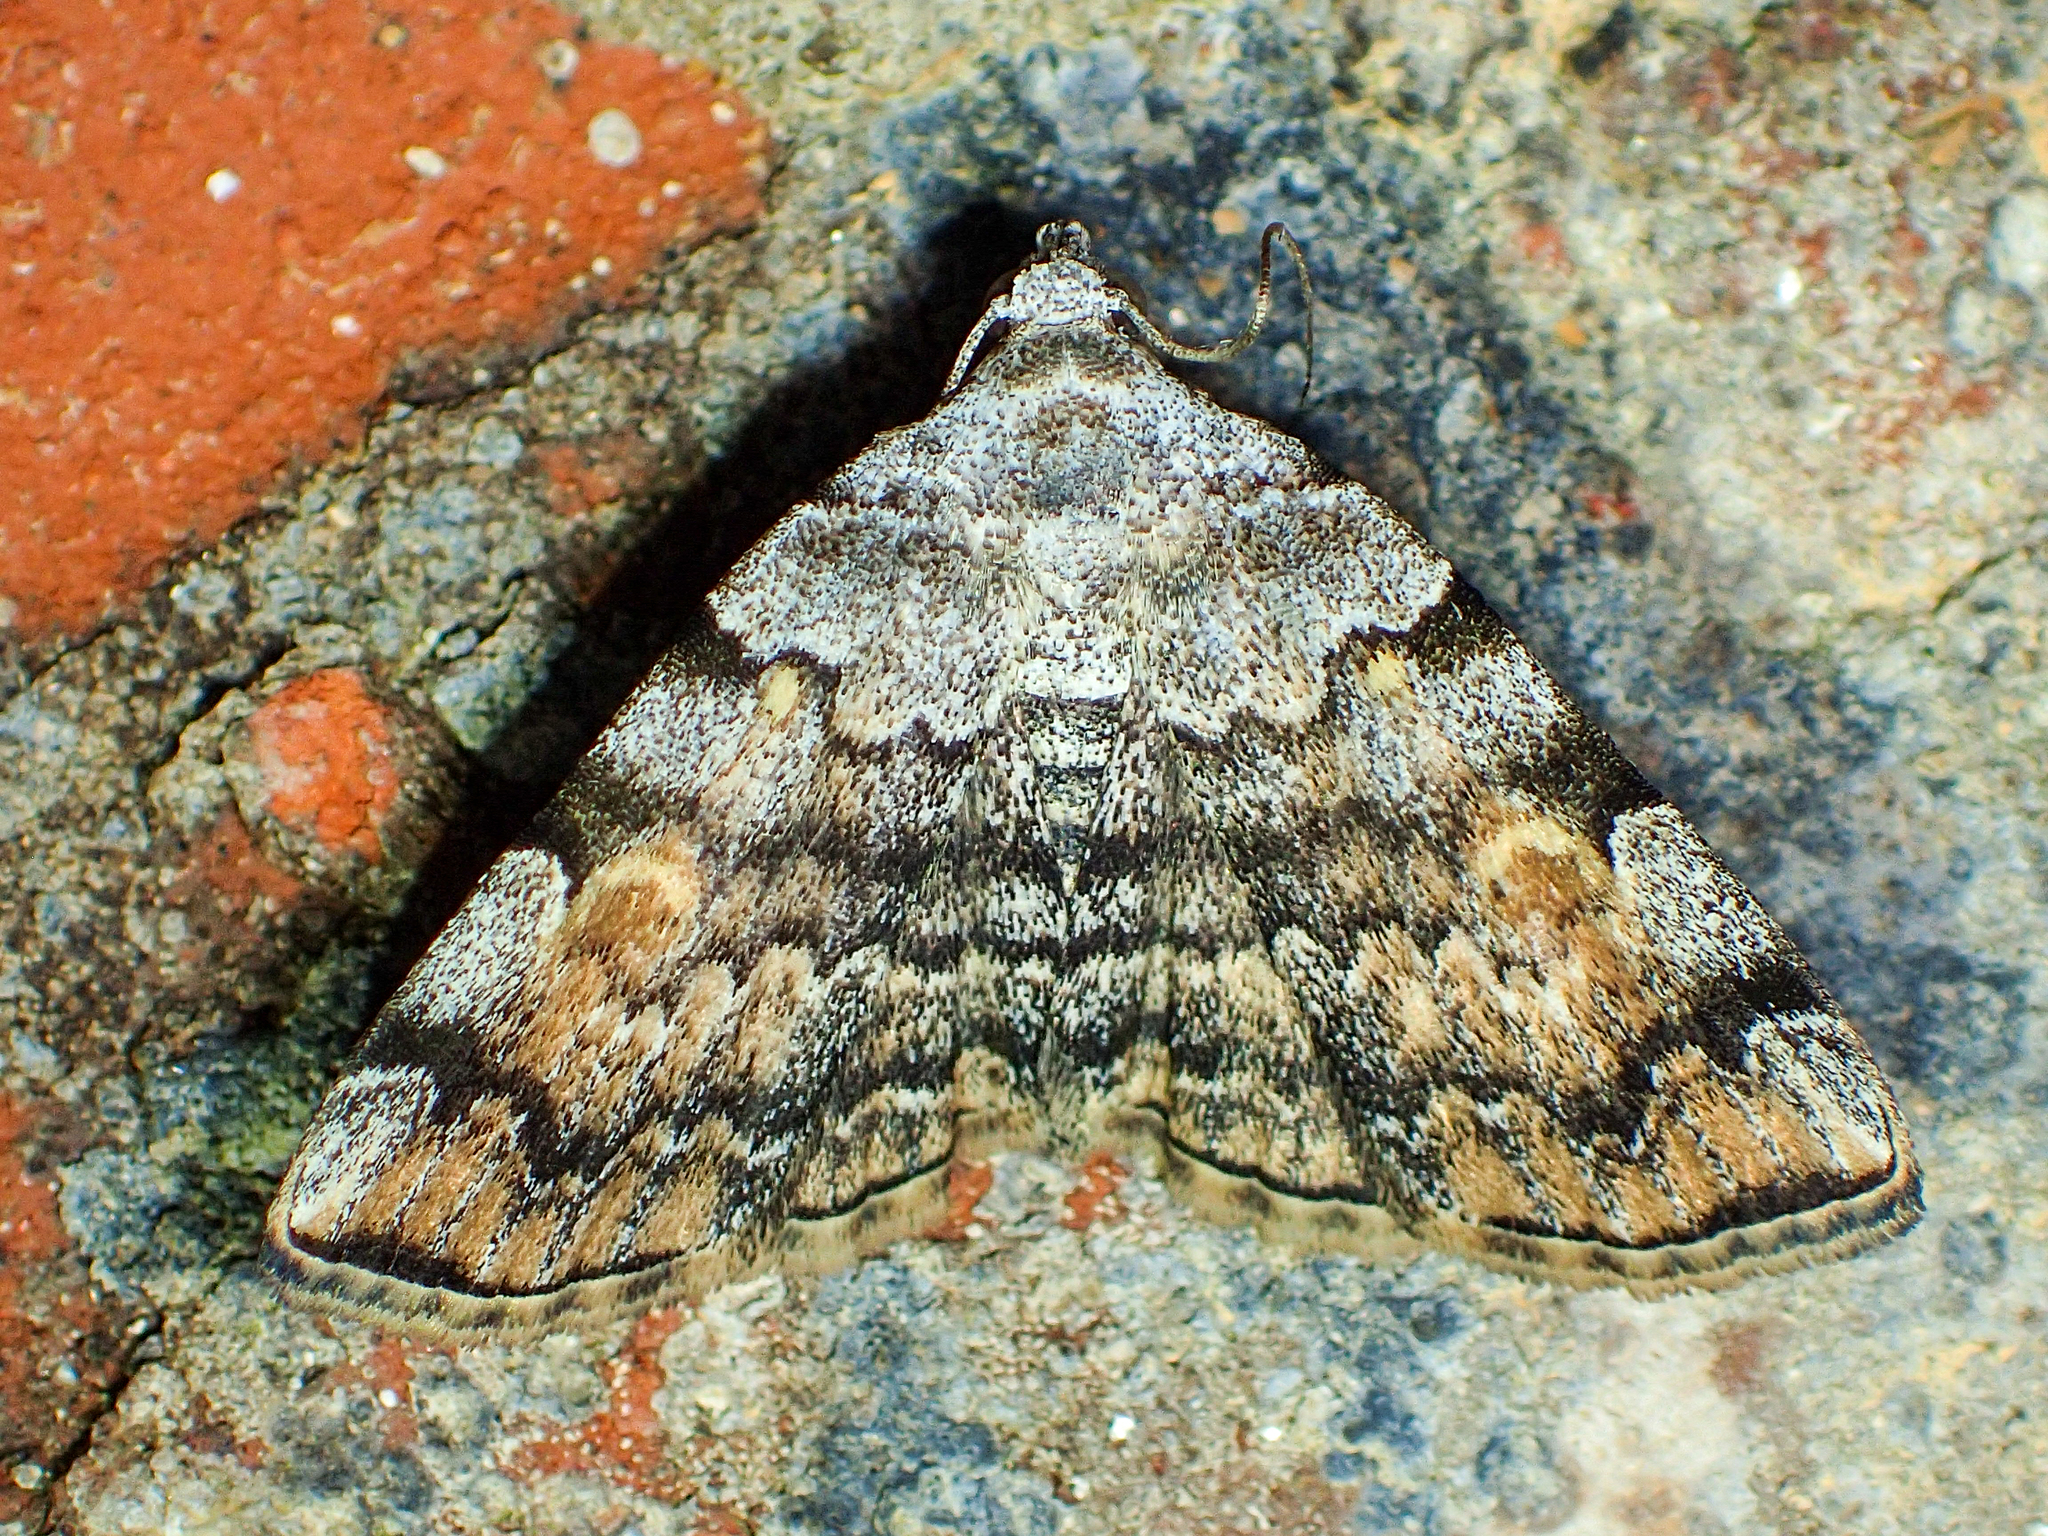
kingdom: Animalia
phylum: Arthropoda
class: Insecta
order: Lepidoptera
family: Erebidae
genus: Idia
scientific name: Idia americalis
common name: American idia moth
